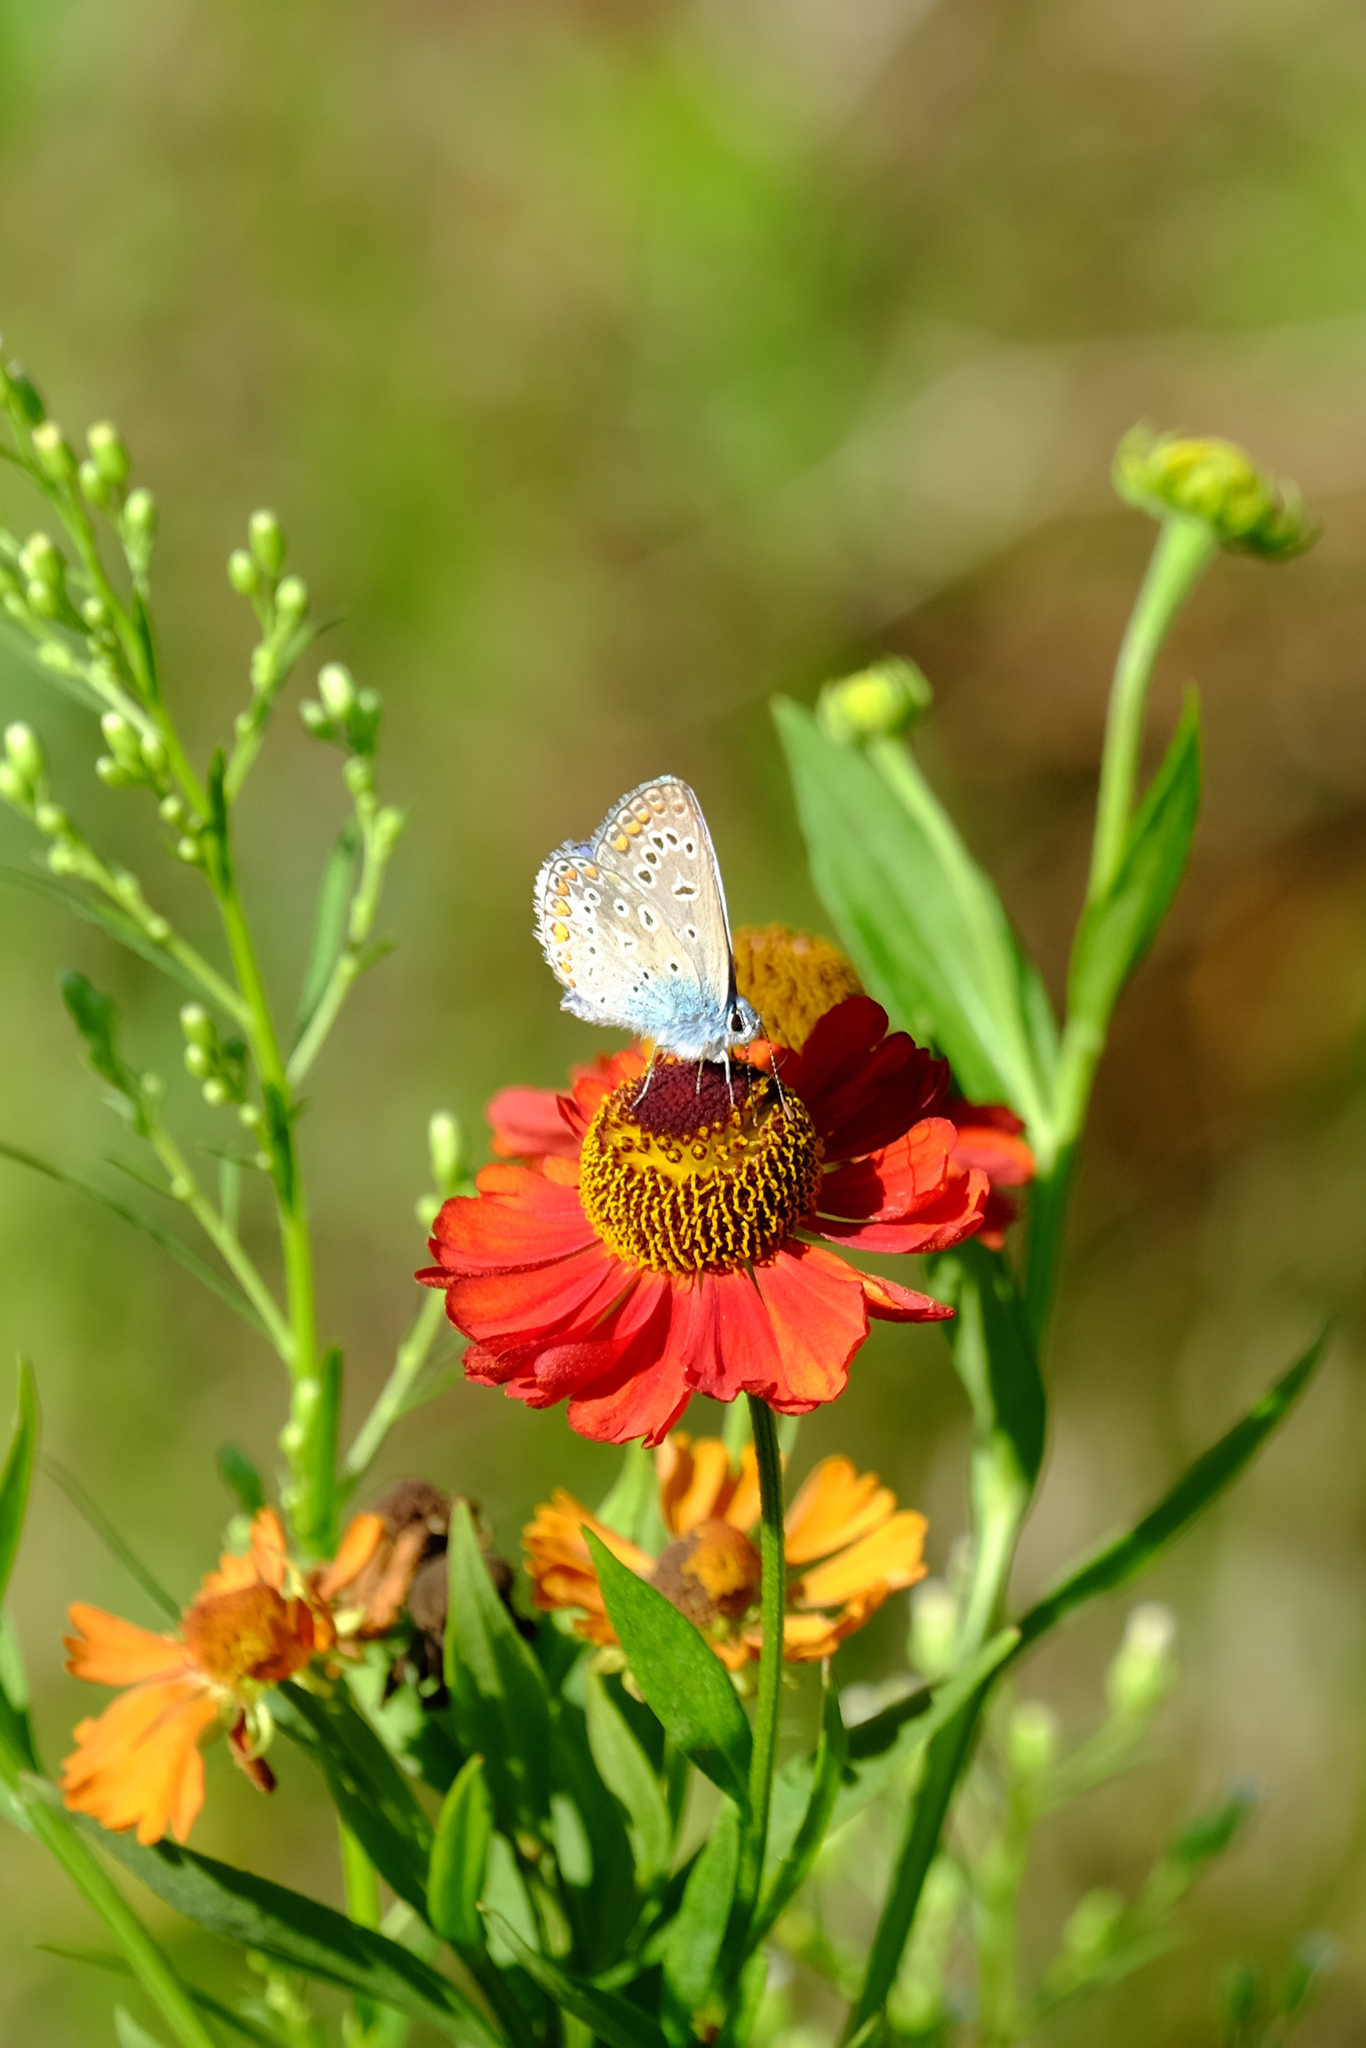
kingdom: Animalia
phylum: Arthropoda
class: Insecta
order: Lepidoptera
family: Lycaenidae
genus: Polyommatus
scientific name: Polyommatus icarus
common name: Common blue
